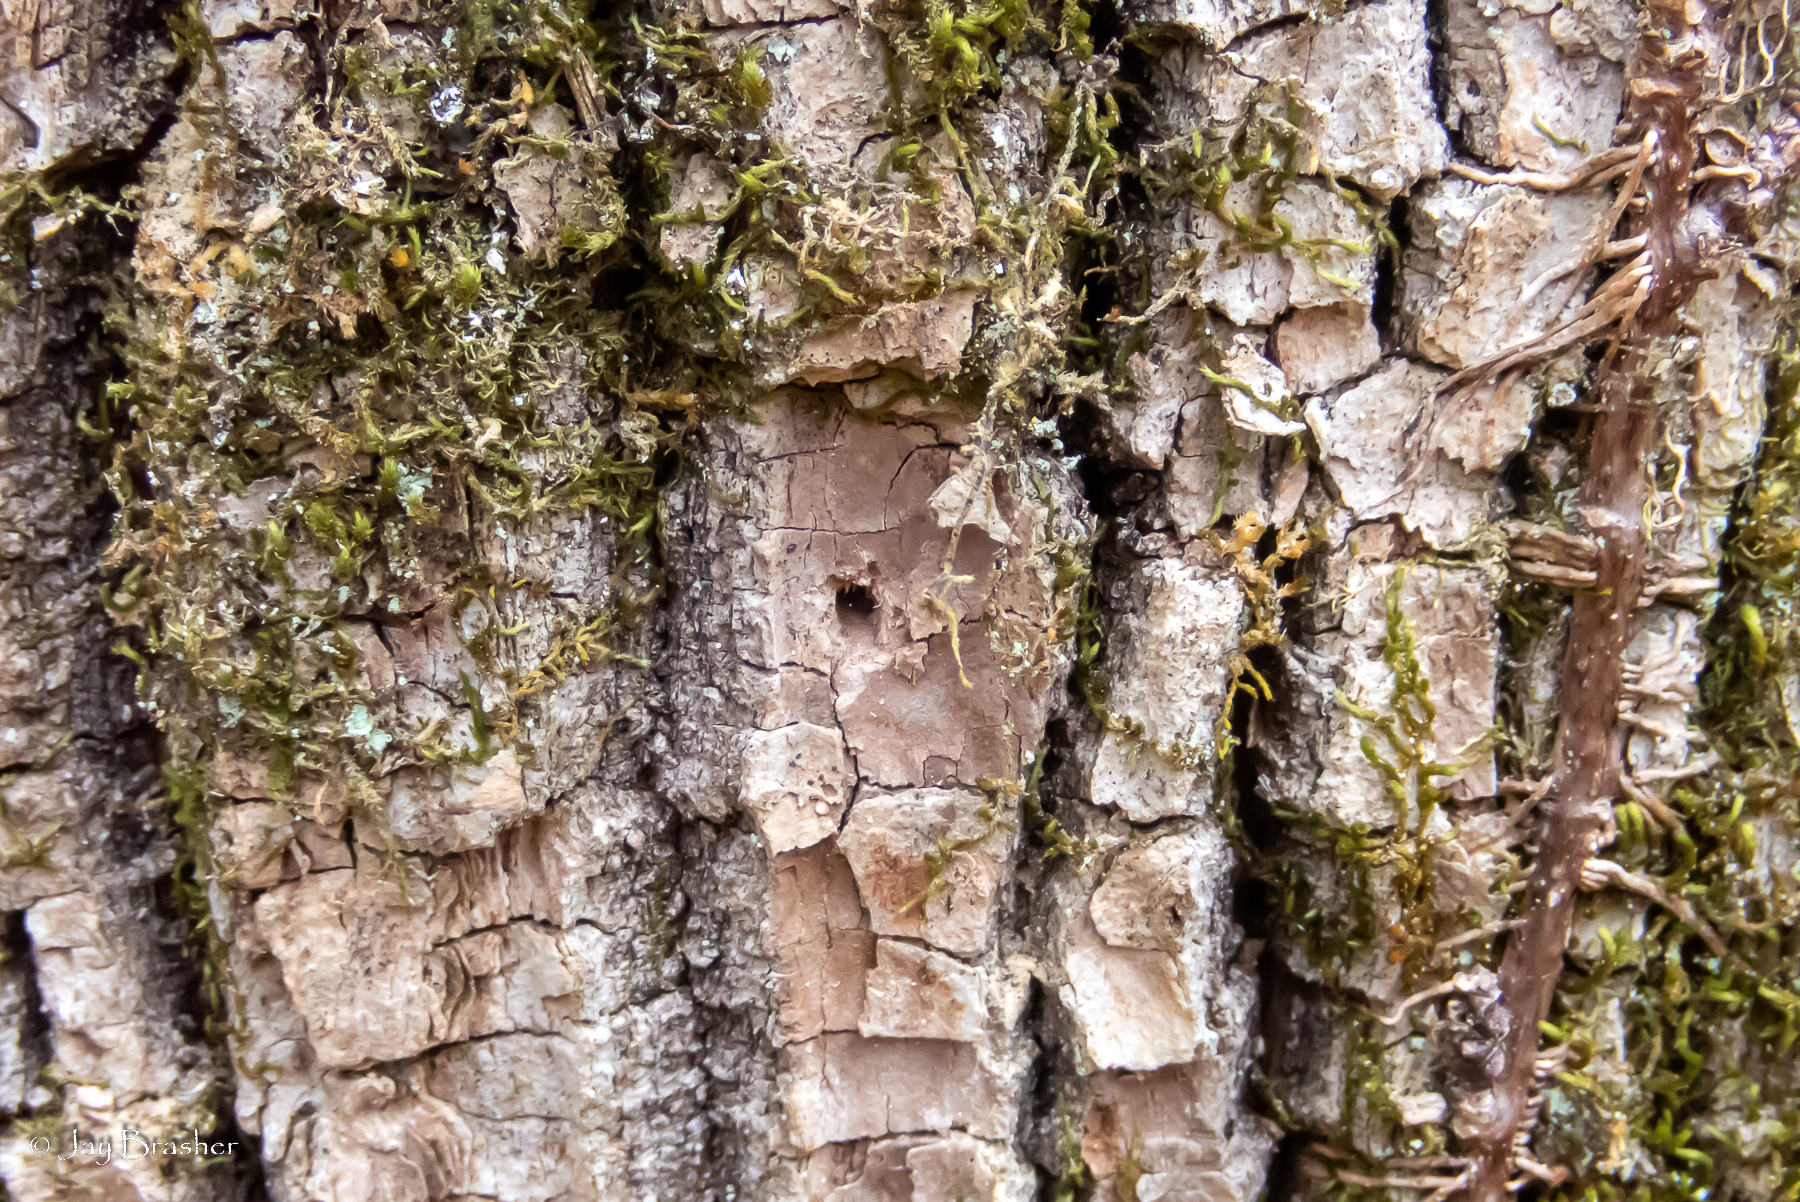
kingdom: Animalia
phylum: Arthropoda
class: Insecta
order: Coleoptera
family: Buprestidae
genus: Agrilus
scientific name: Agrilus planipennis
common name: Emerald ash borer
